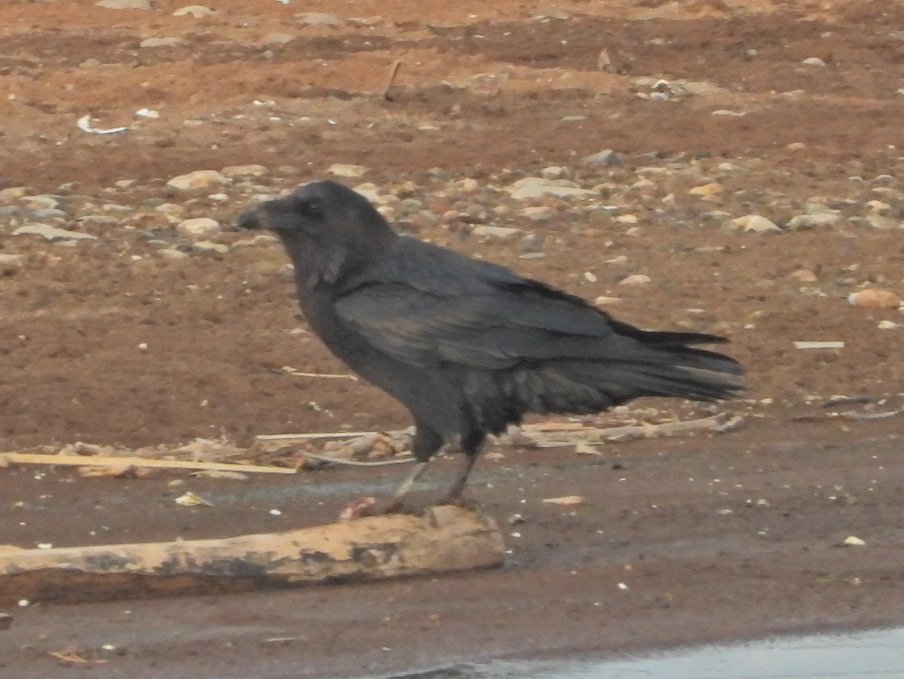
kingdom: Animalia
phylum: Chordata
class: Aves
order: Passeriformes
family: Corvidae
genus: Corvus
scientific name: Corvus corax
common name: Common raven
